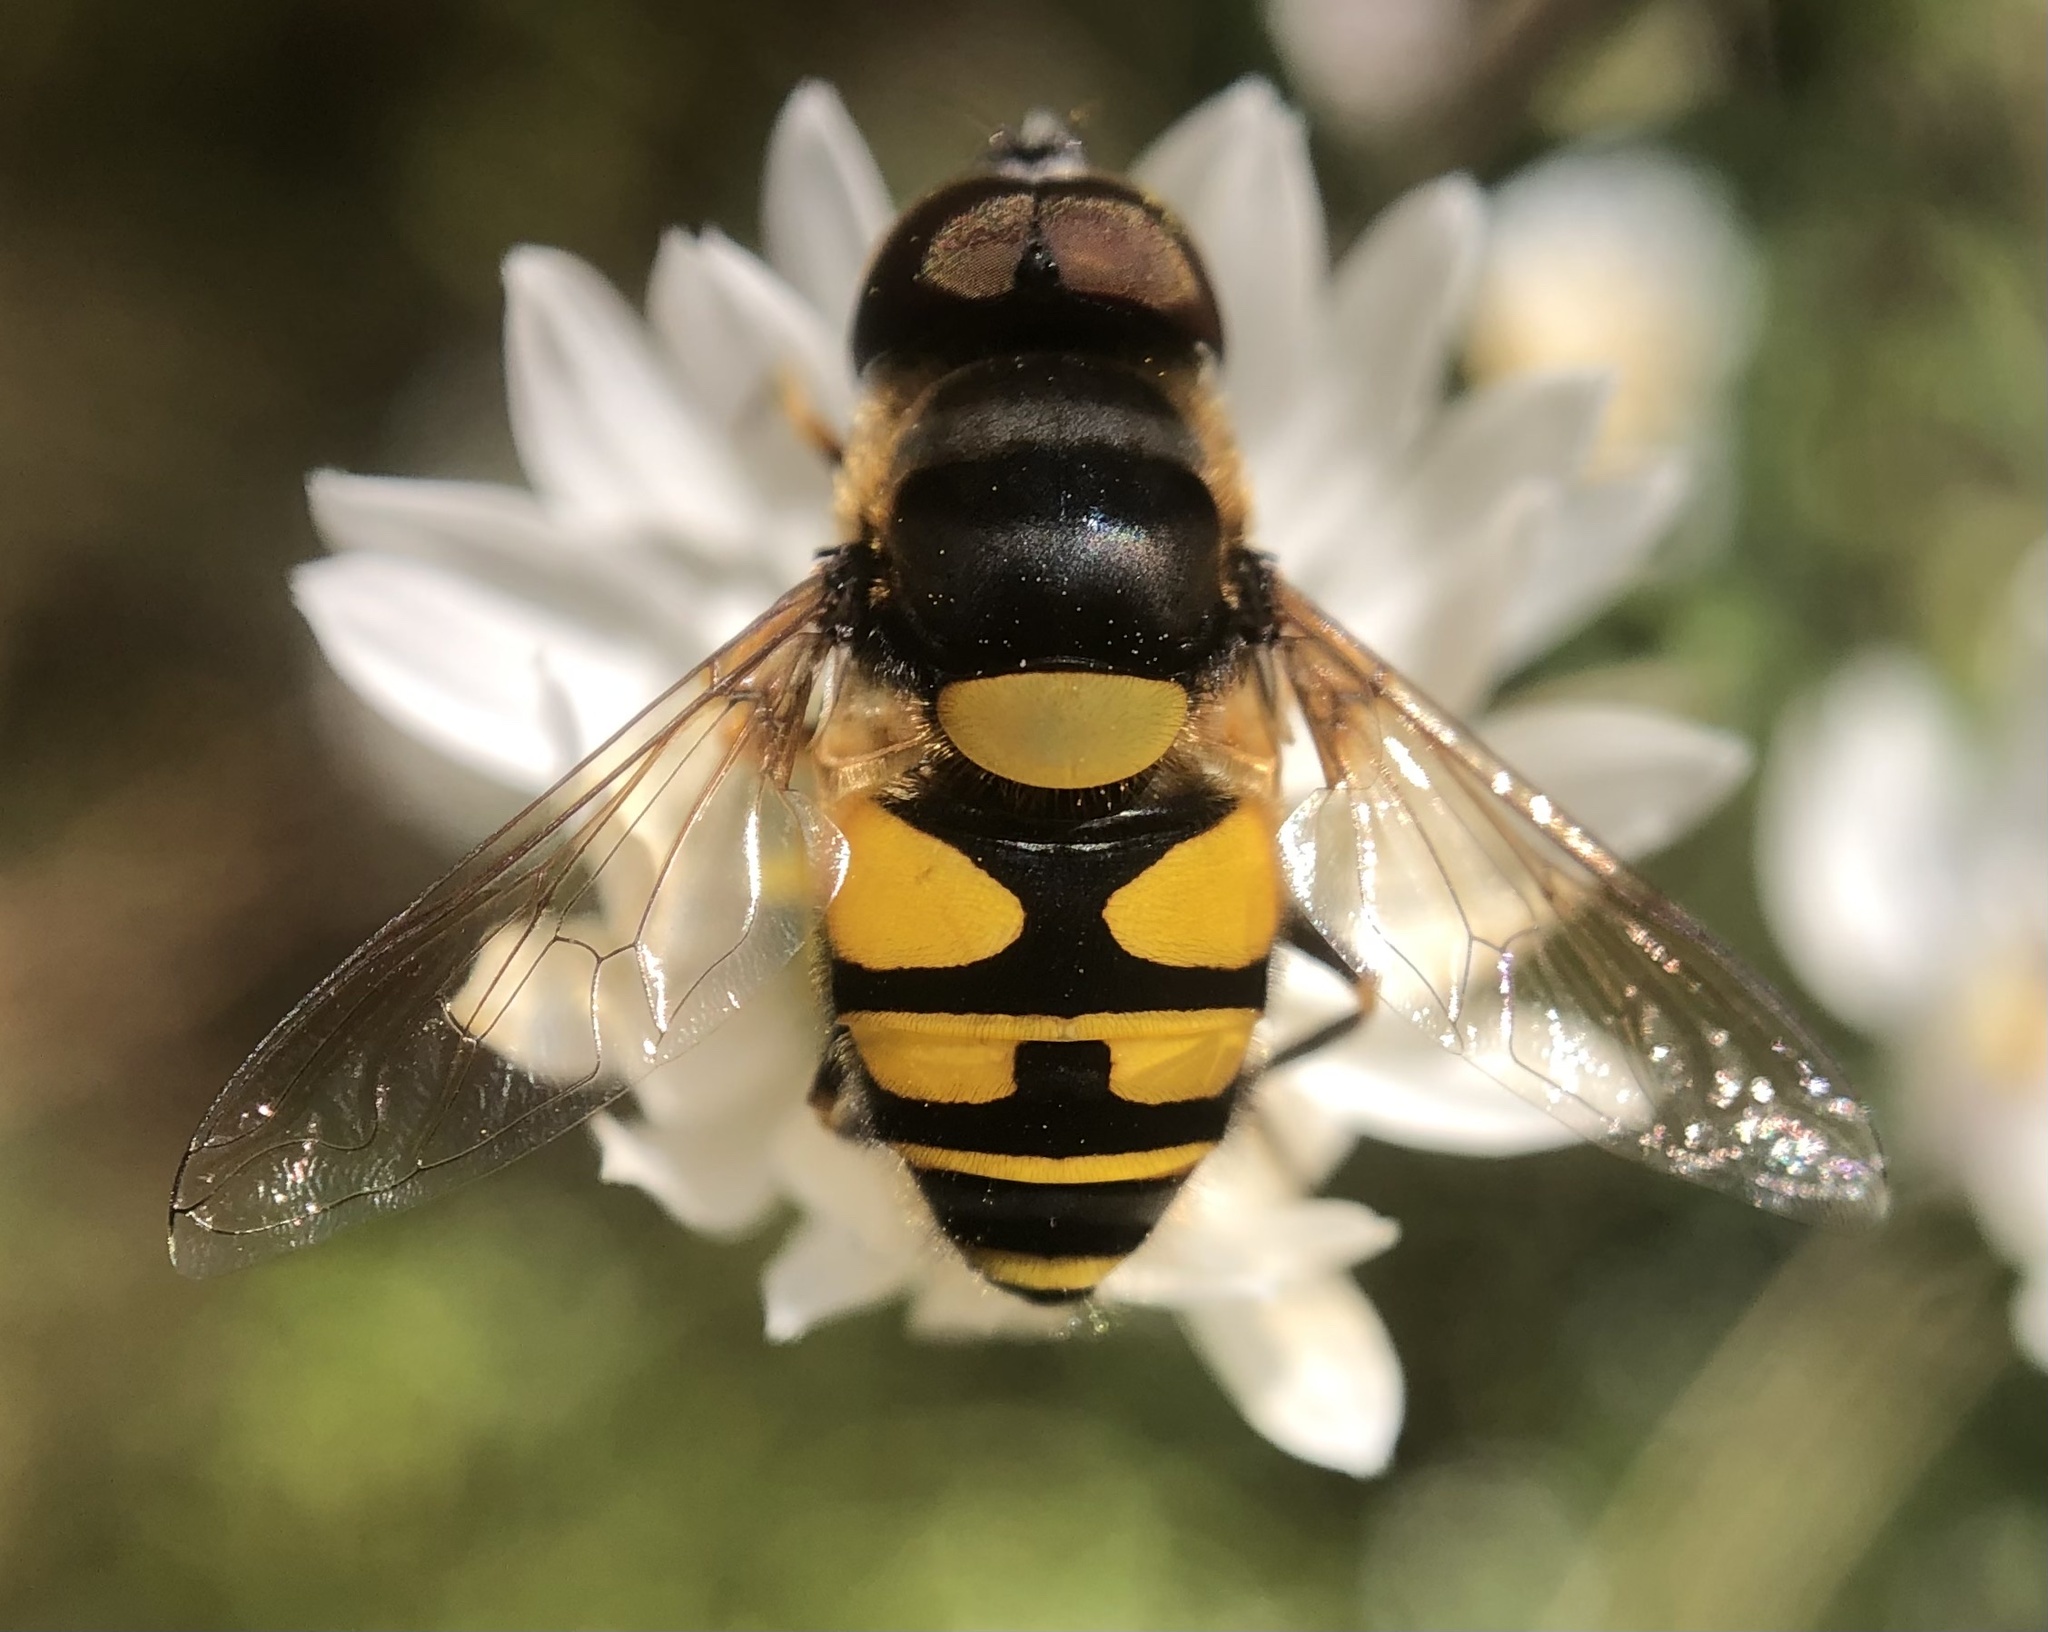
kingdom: Animalia
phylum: Arthropoda
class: Insecta
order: Diptera
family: Syrphidae
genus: Eristalis
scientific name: Eristalis transversa
